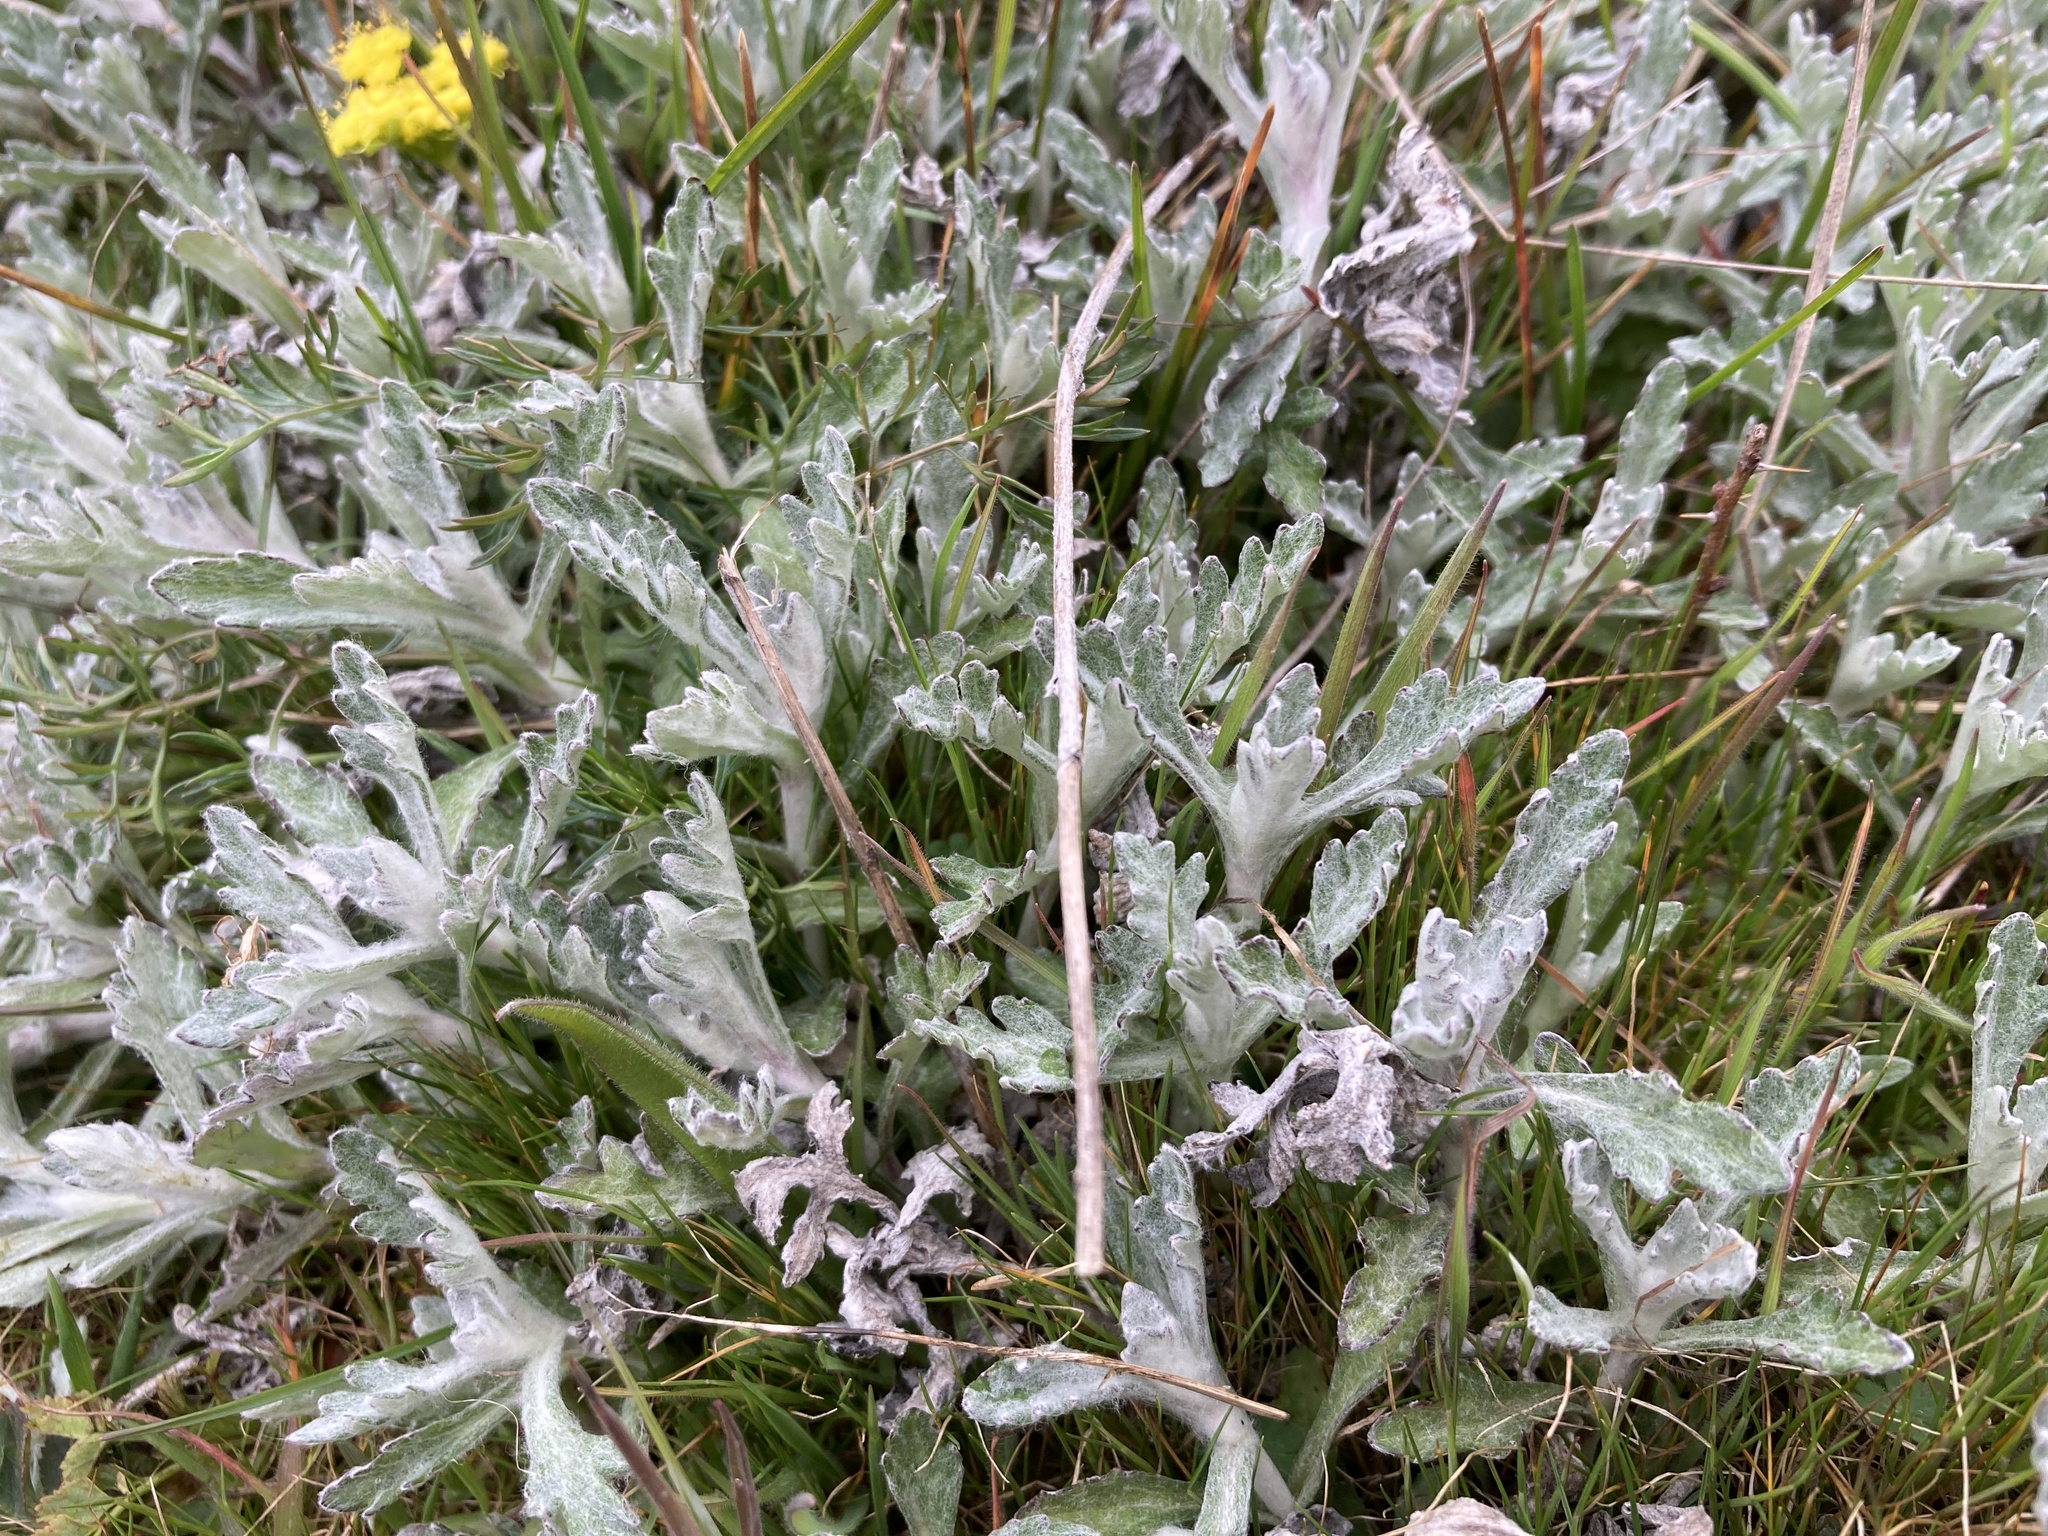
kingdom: Plantae
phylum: Tracheophyta
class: Magnoliopsida
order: Asterales
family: Asteraceae
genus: Eriophyllum
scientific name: Eriophyllum lanatum
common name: Common woolly-sunflower
